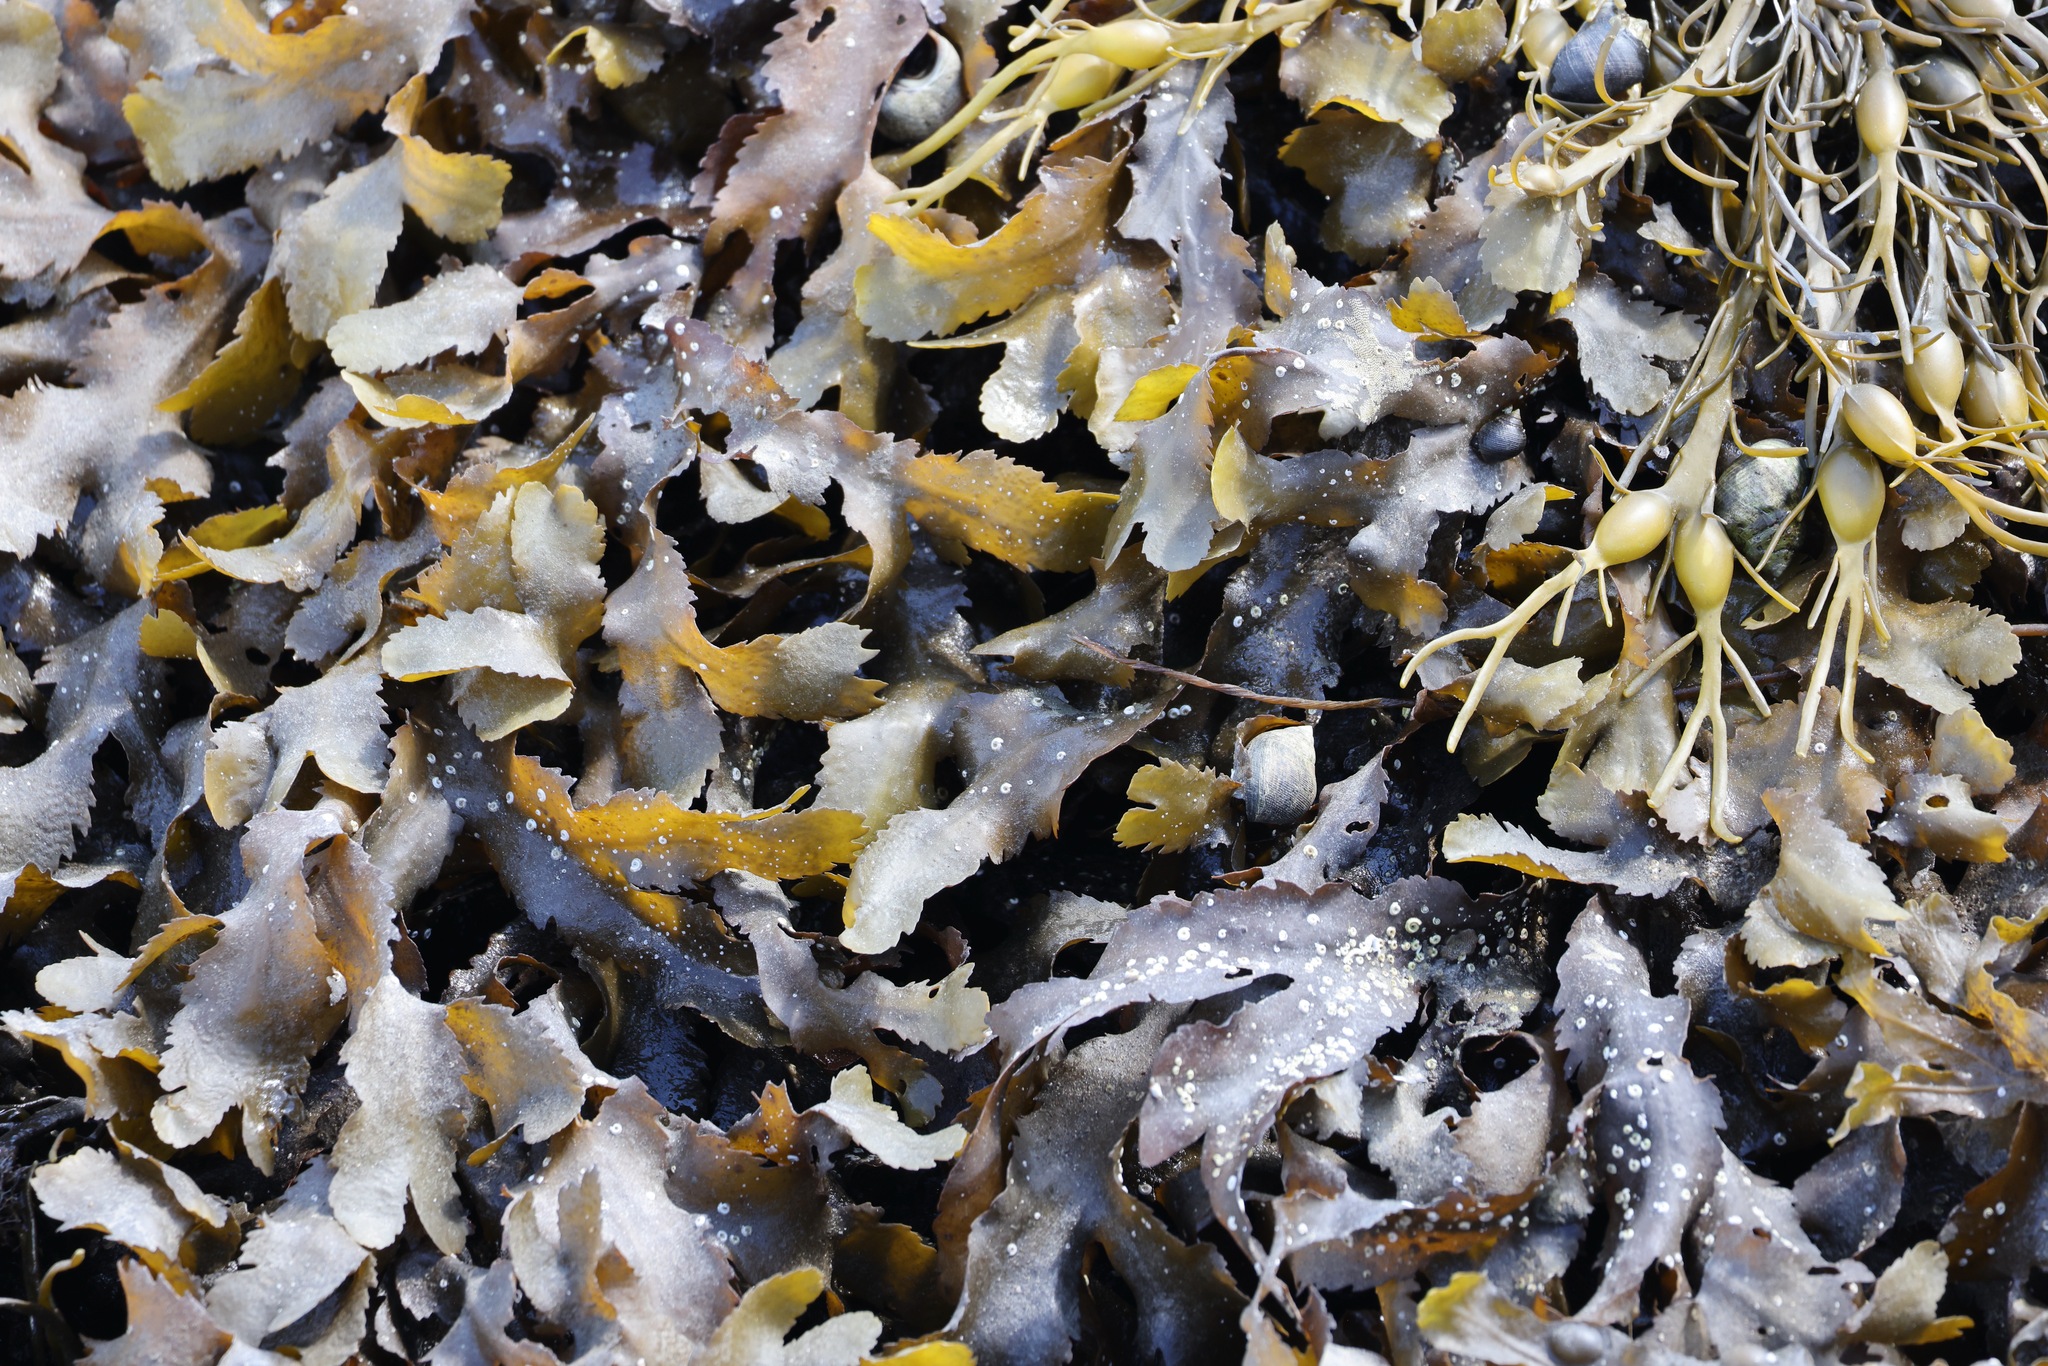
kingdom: Chromista
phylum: Ochrophyta
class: Phaeophyceae
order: Fucales
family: Fucaceae
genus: Fucus
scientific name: Fucus serratus
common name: Toothed wrack
